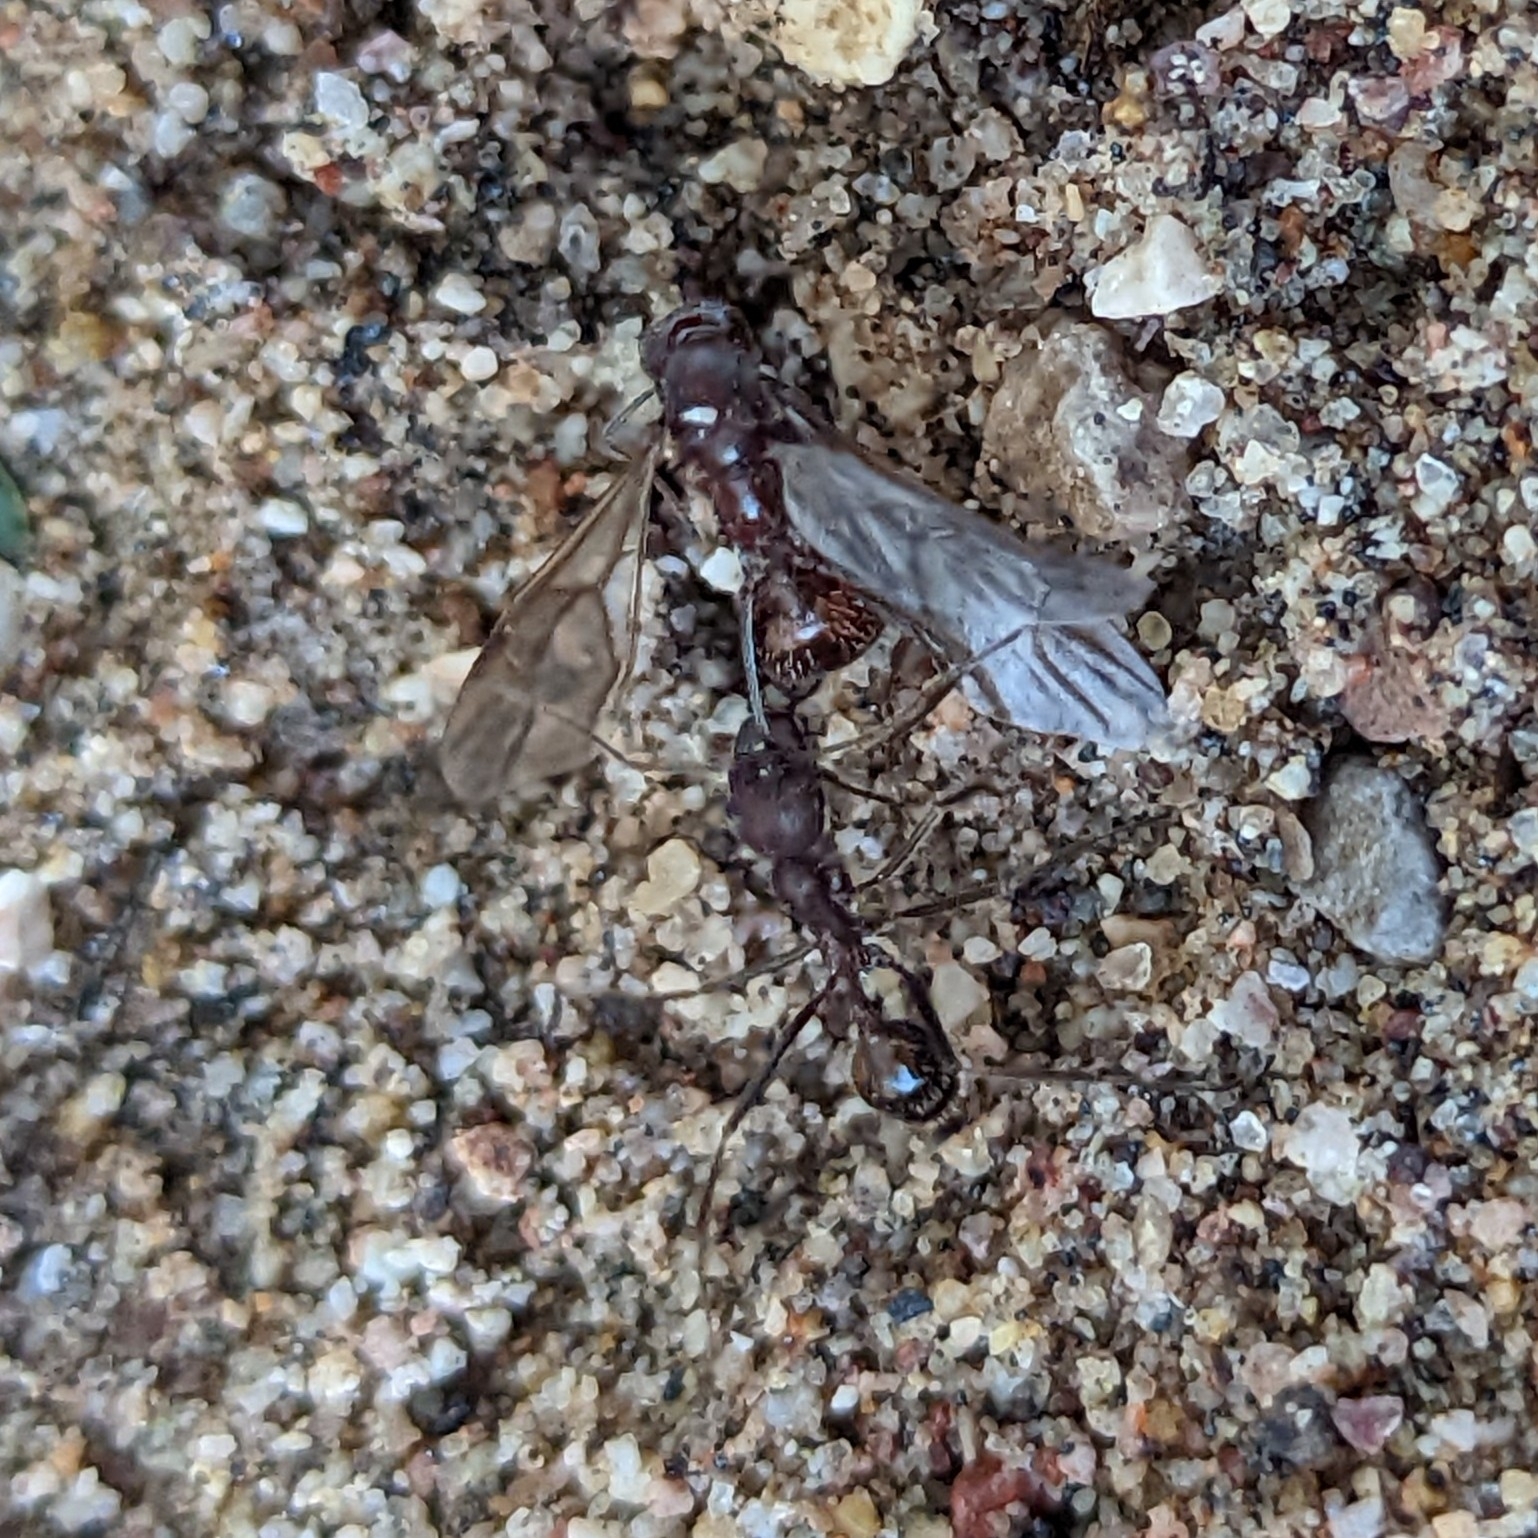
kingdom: Animalia
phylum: Arthropoda
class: Insecta
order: Hymenoptera
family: Formicidae
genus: Novomessor
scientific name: Novomessor albisetosa
